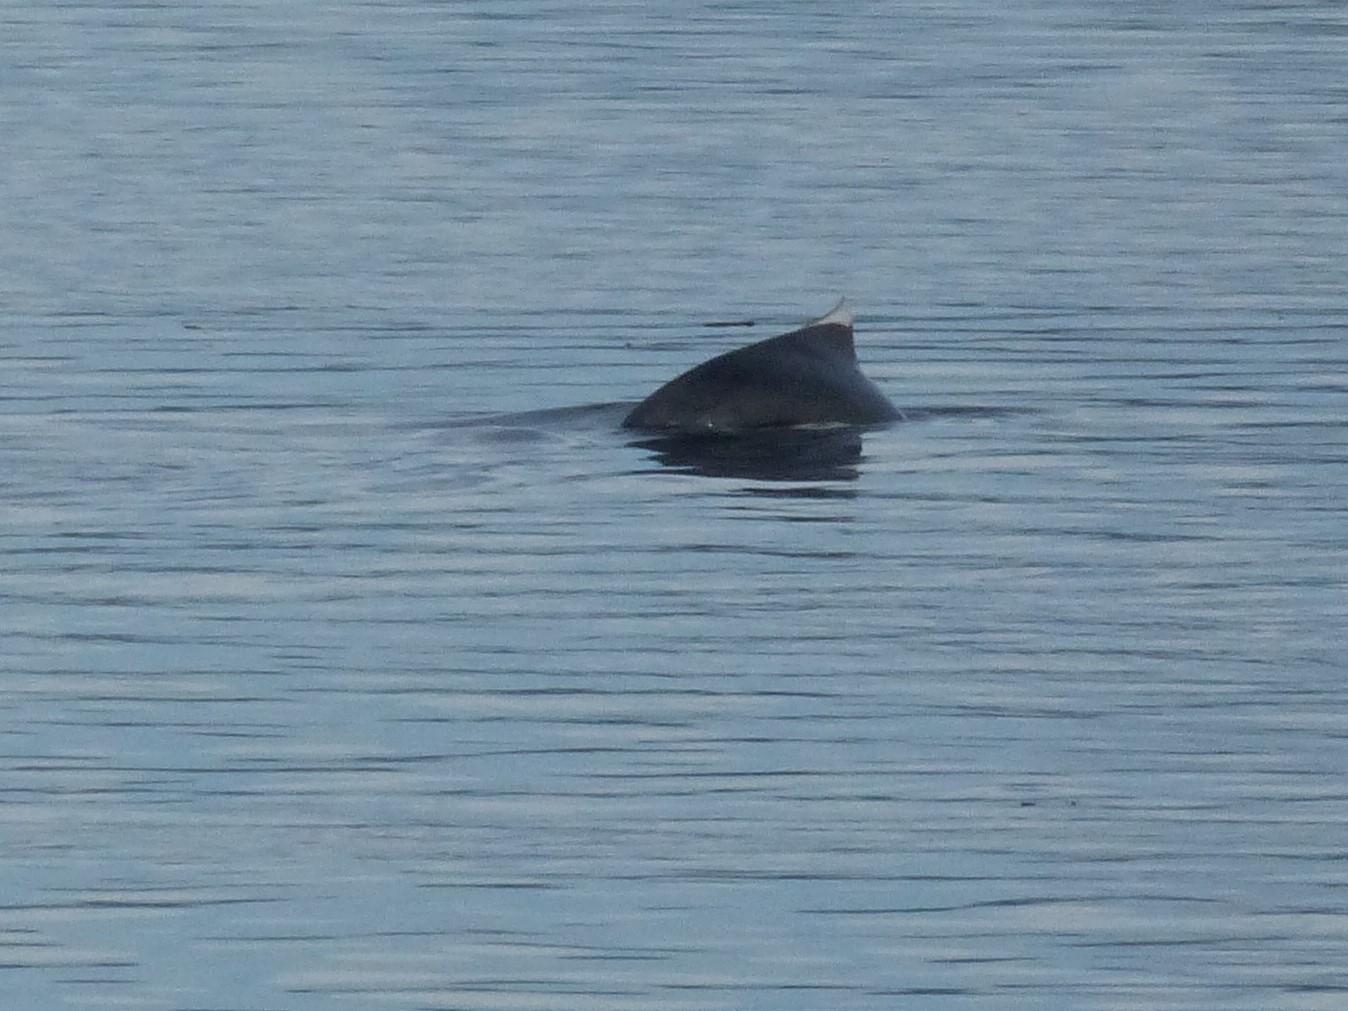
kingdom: Animalia
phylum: Chordata
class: Mammalia
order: Cetacea
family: Phocoenidae
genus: Phocoenoides
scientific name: Phocoenoides dalli
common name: Dall's porpoise
